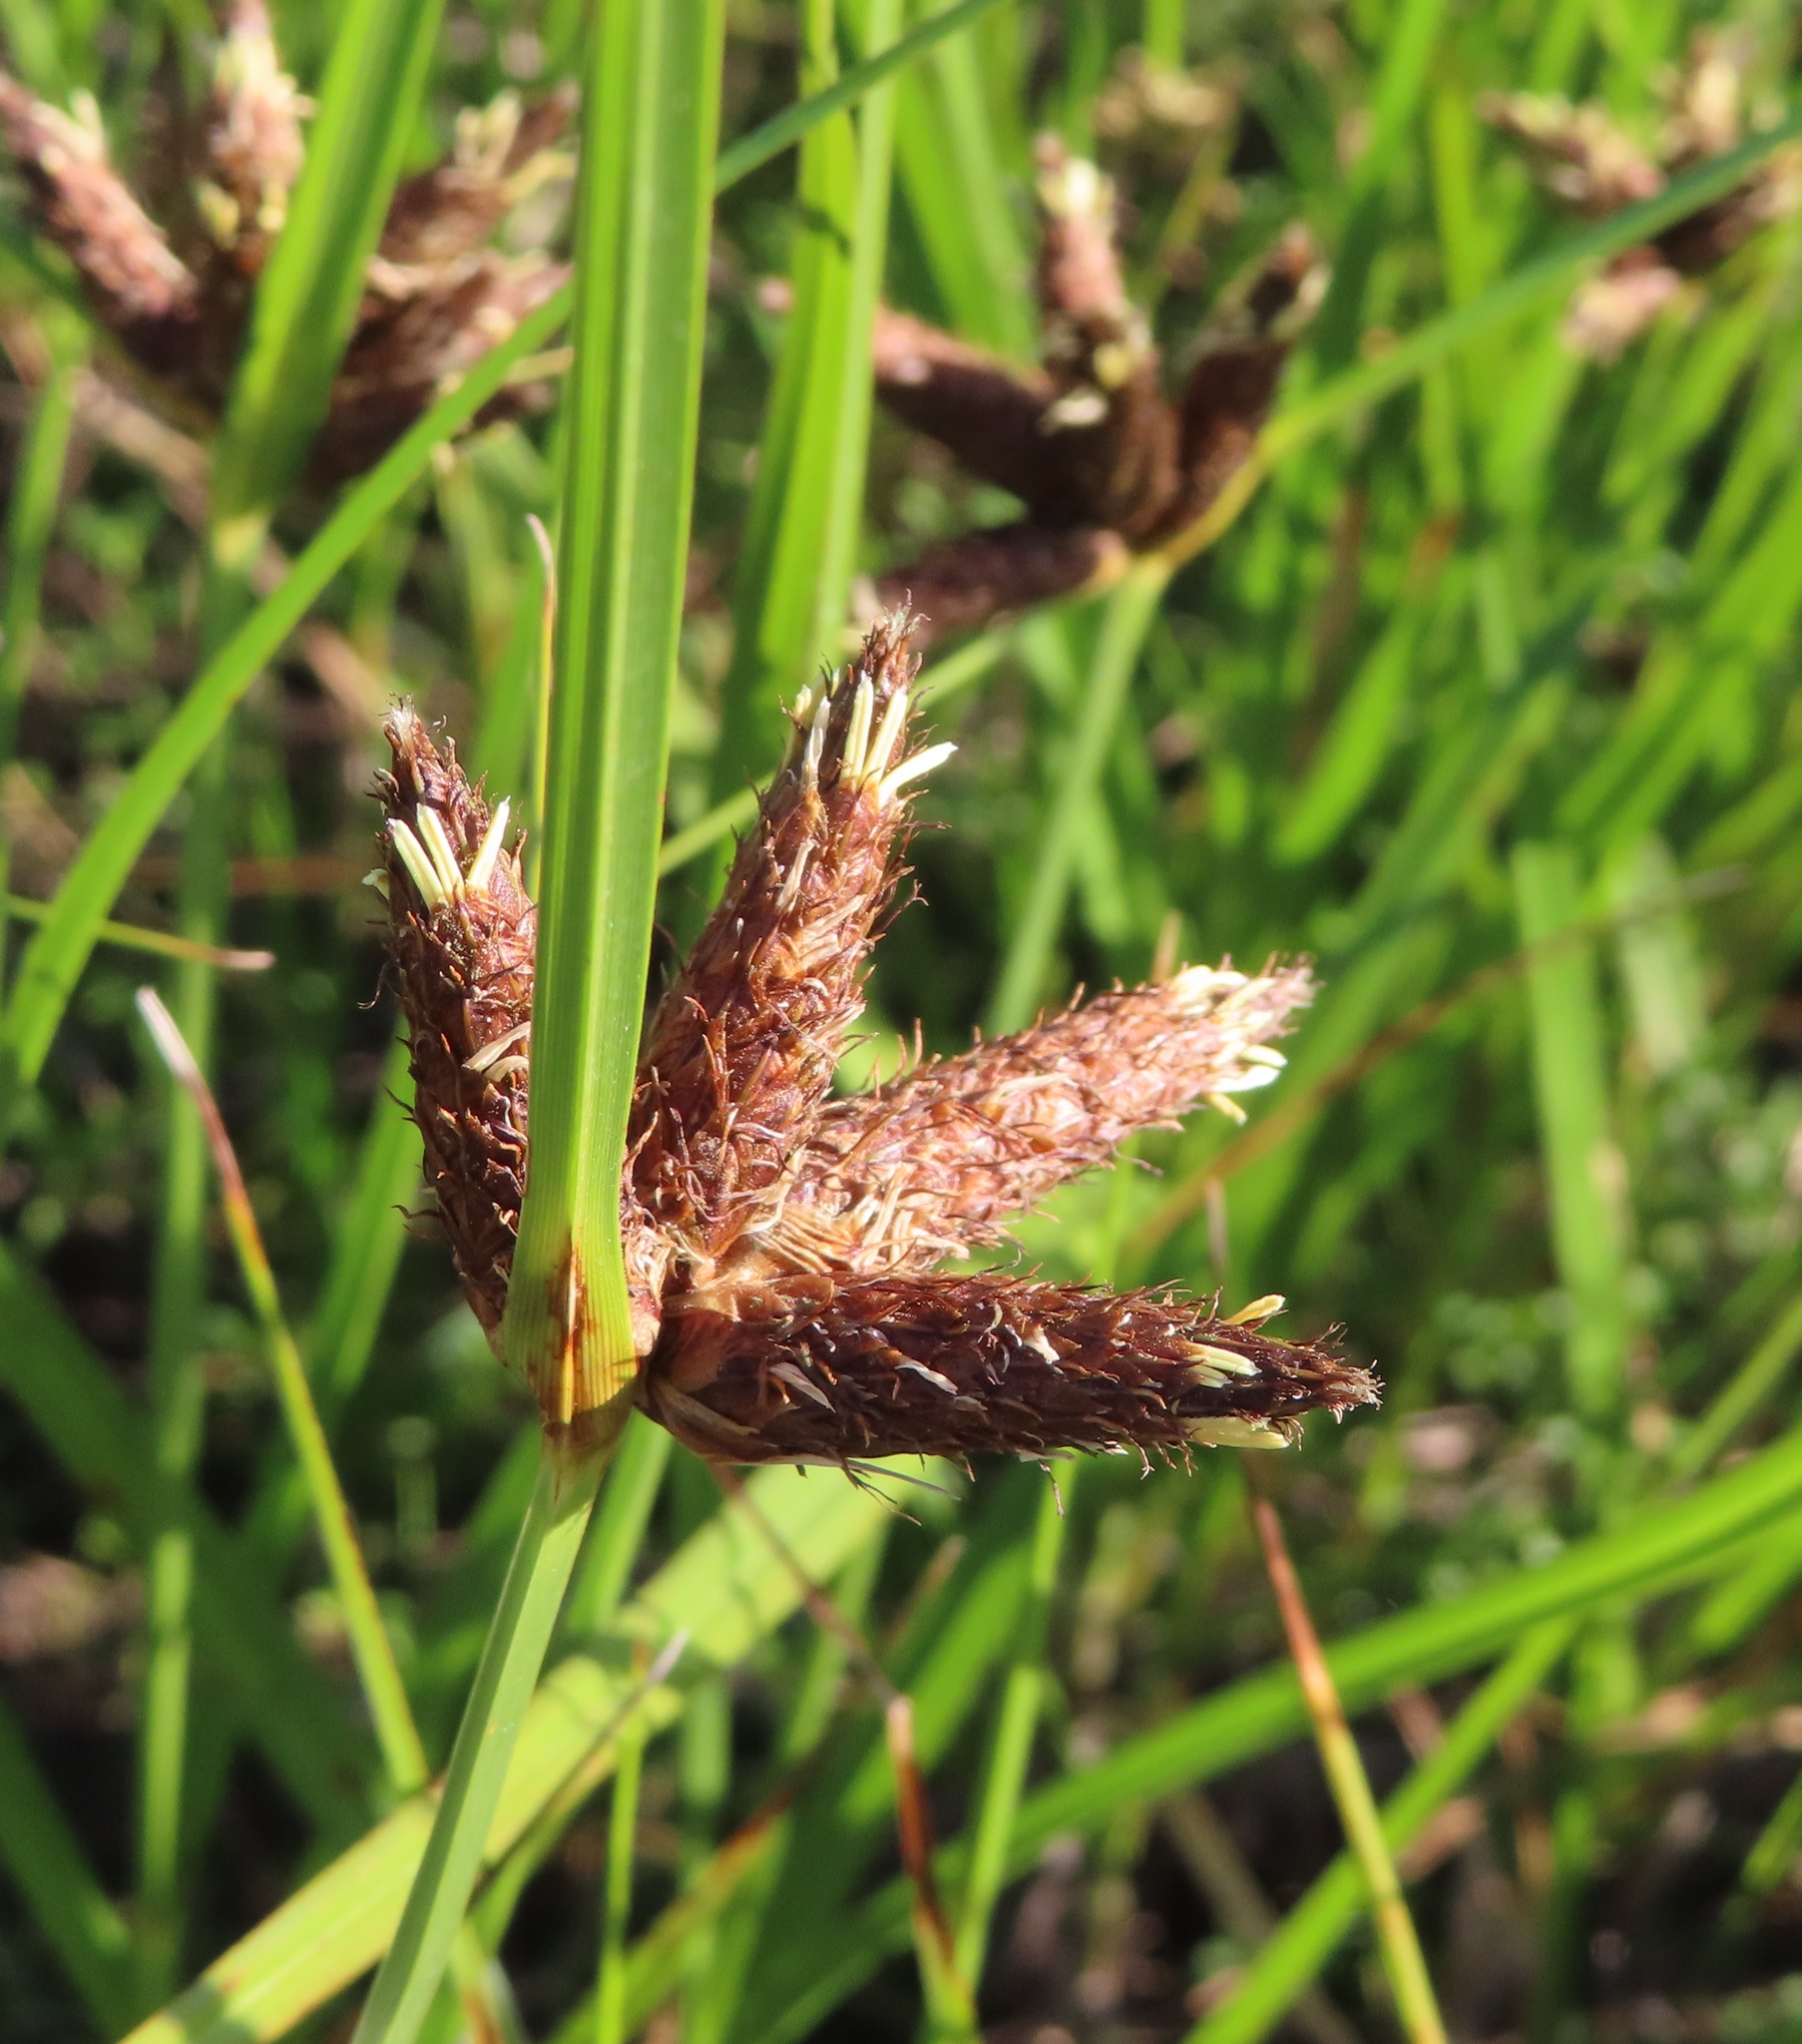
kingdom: Plantae
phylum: Tracheophyta
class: Liliopsida
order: Poales
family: Cyperaceae
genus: Bolboschoenus
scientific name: Bolboschoenus maritimus
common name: Sea club-rush
